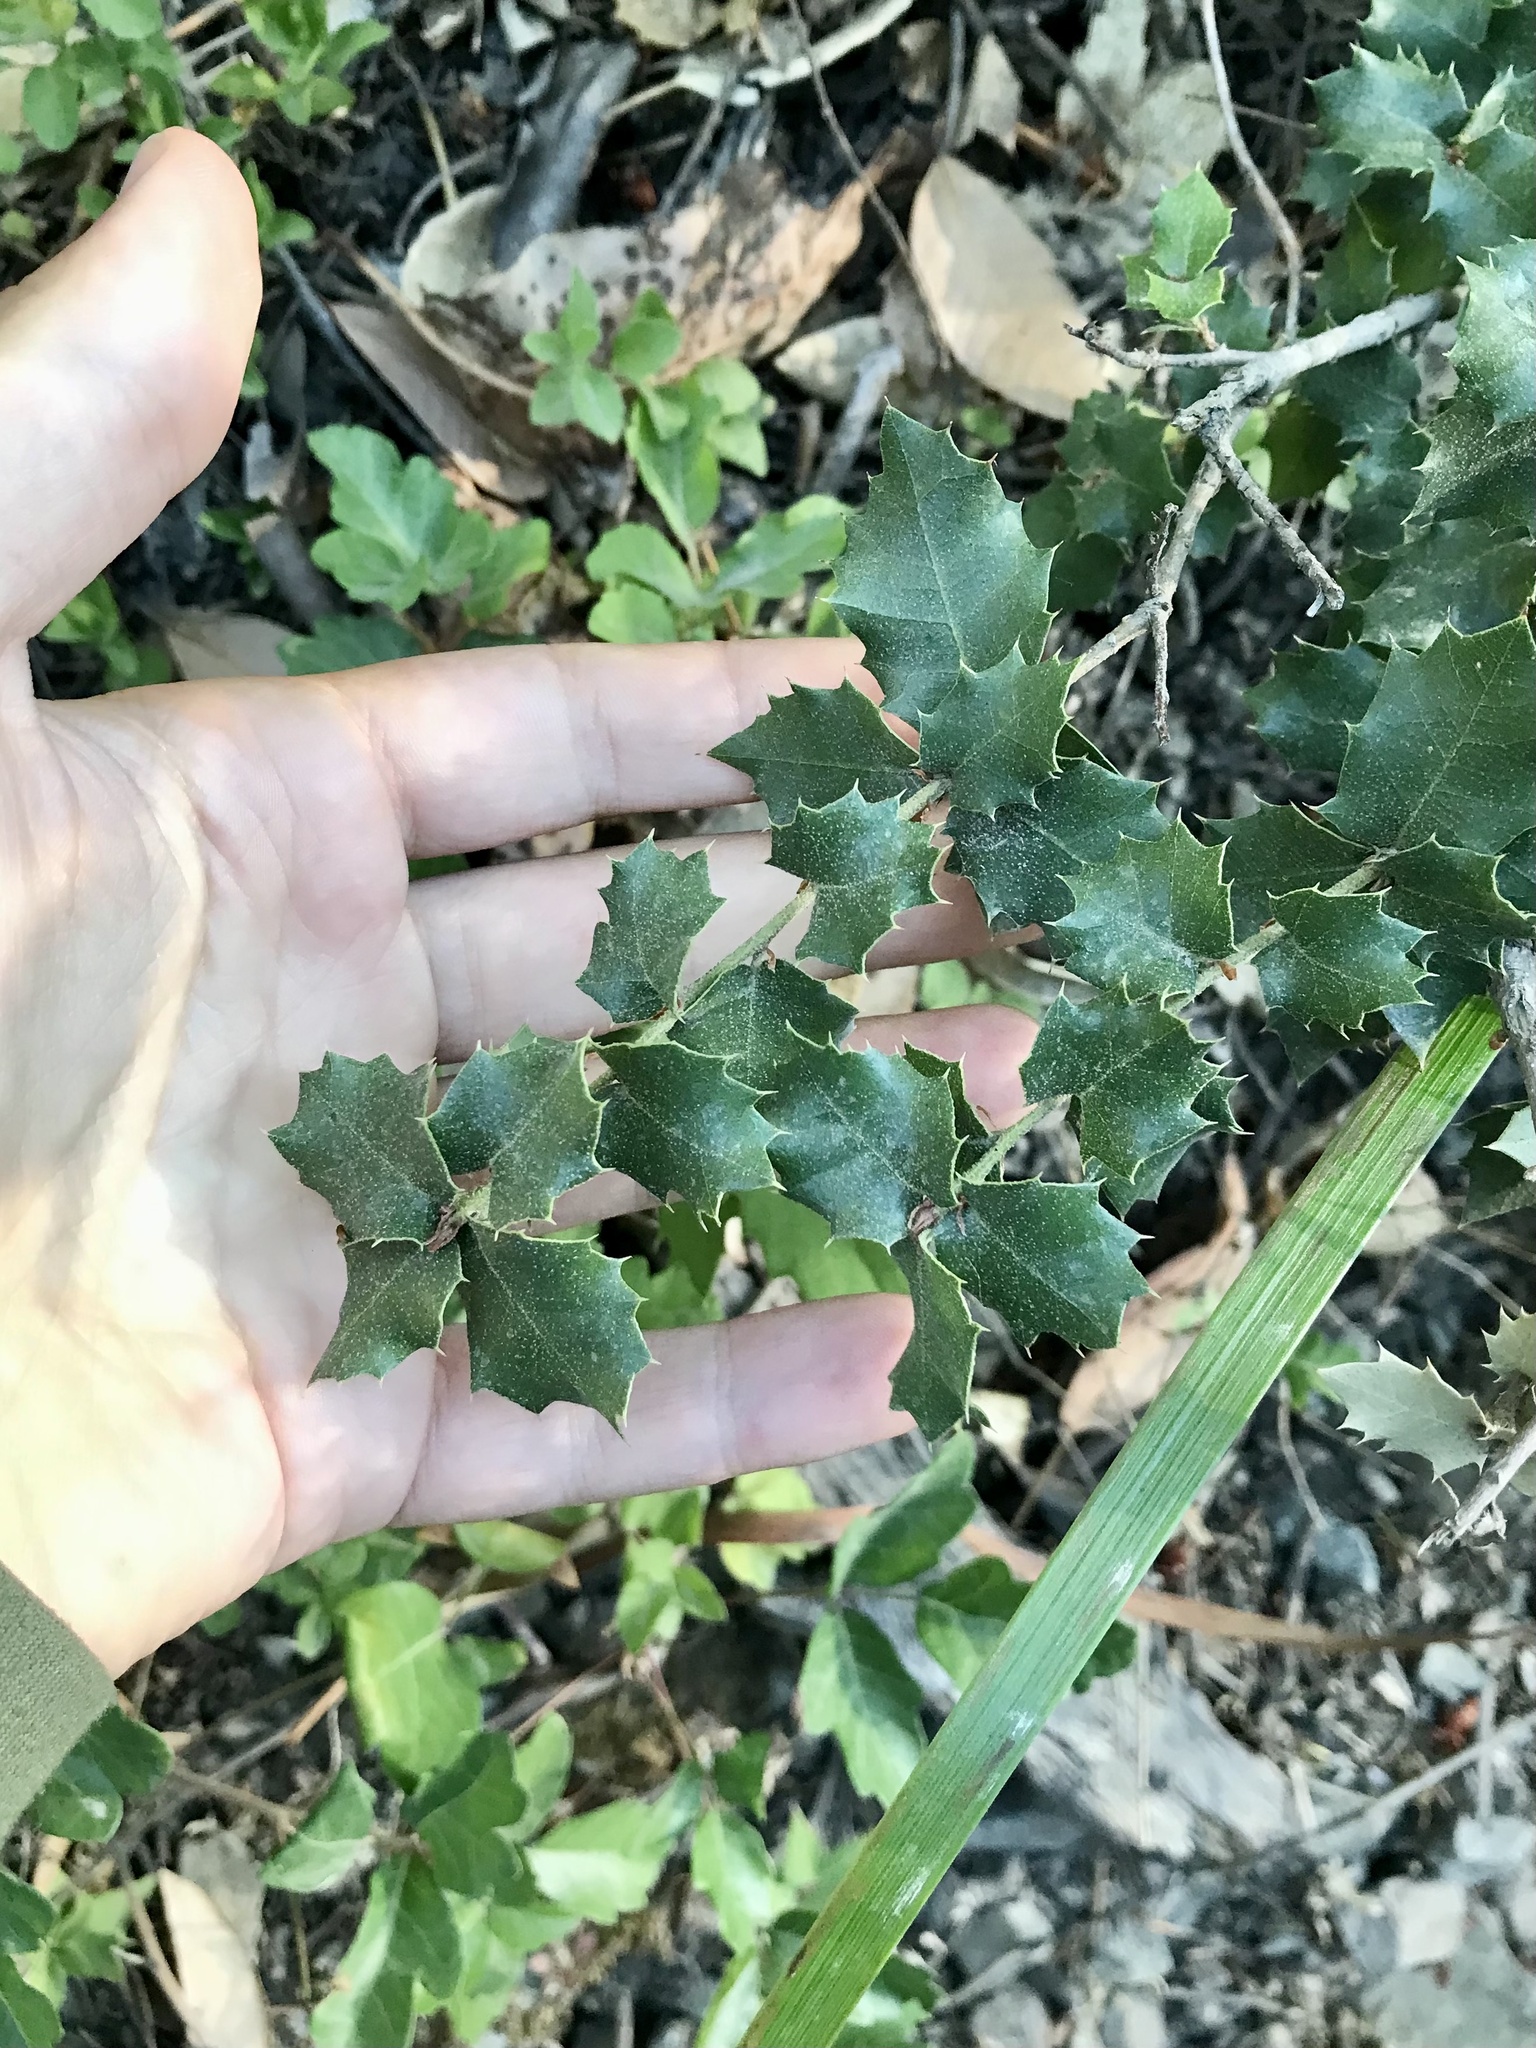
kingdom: Plantae
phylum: Tracheophyta
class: Magnoliopsida
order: Fagales
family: Fagaceae
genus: Quercus
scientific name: Quercus chrysolepis
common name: Canyon live oak
